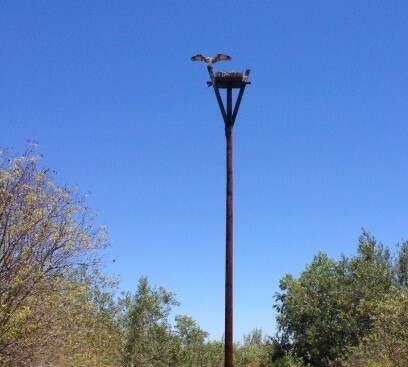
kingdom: Animalia
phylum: Chordata
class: Aves
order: Accipitriformes
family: Pandionidae
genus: Pandion
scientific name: Pandion haliaetus
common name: Osprey
